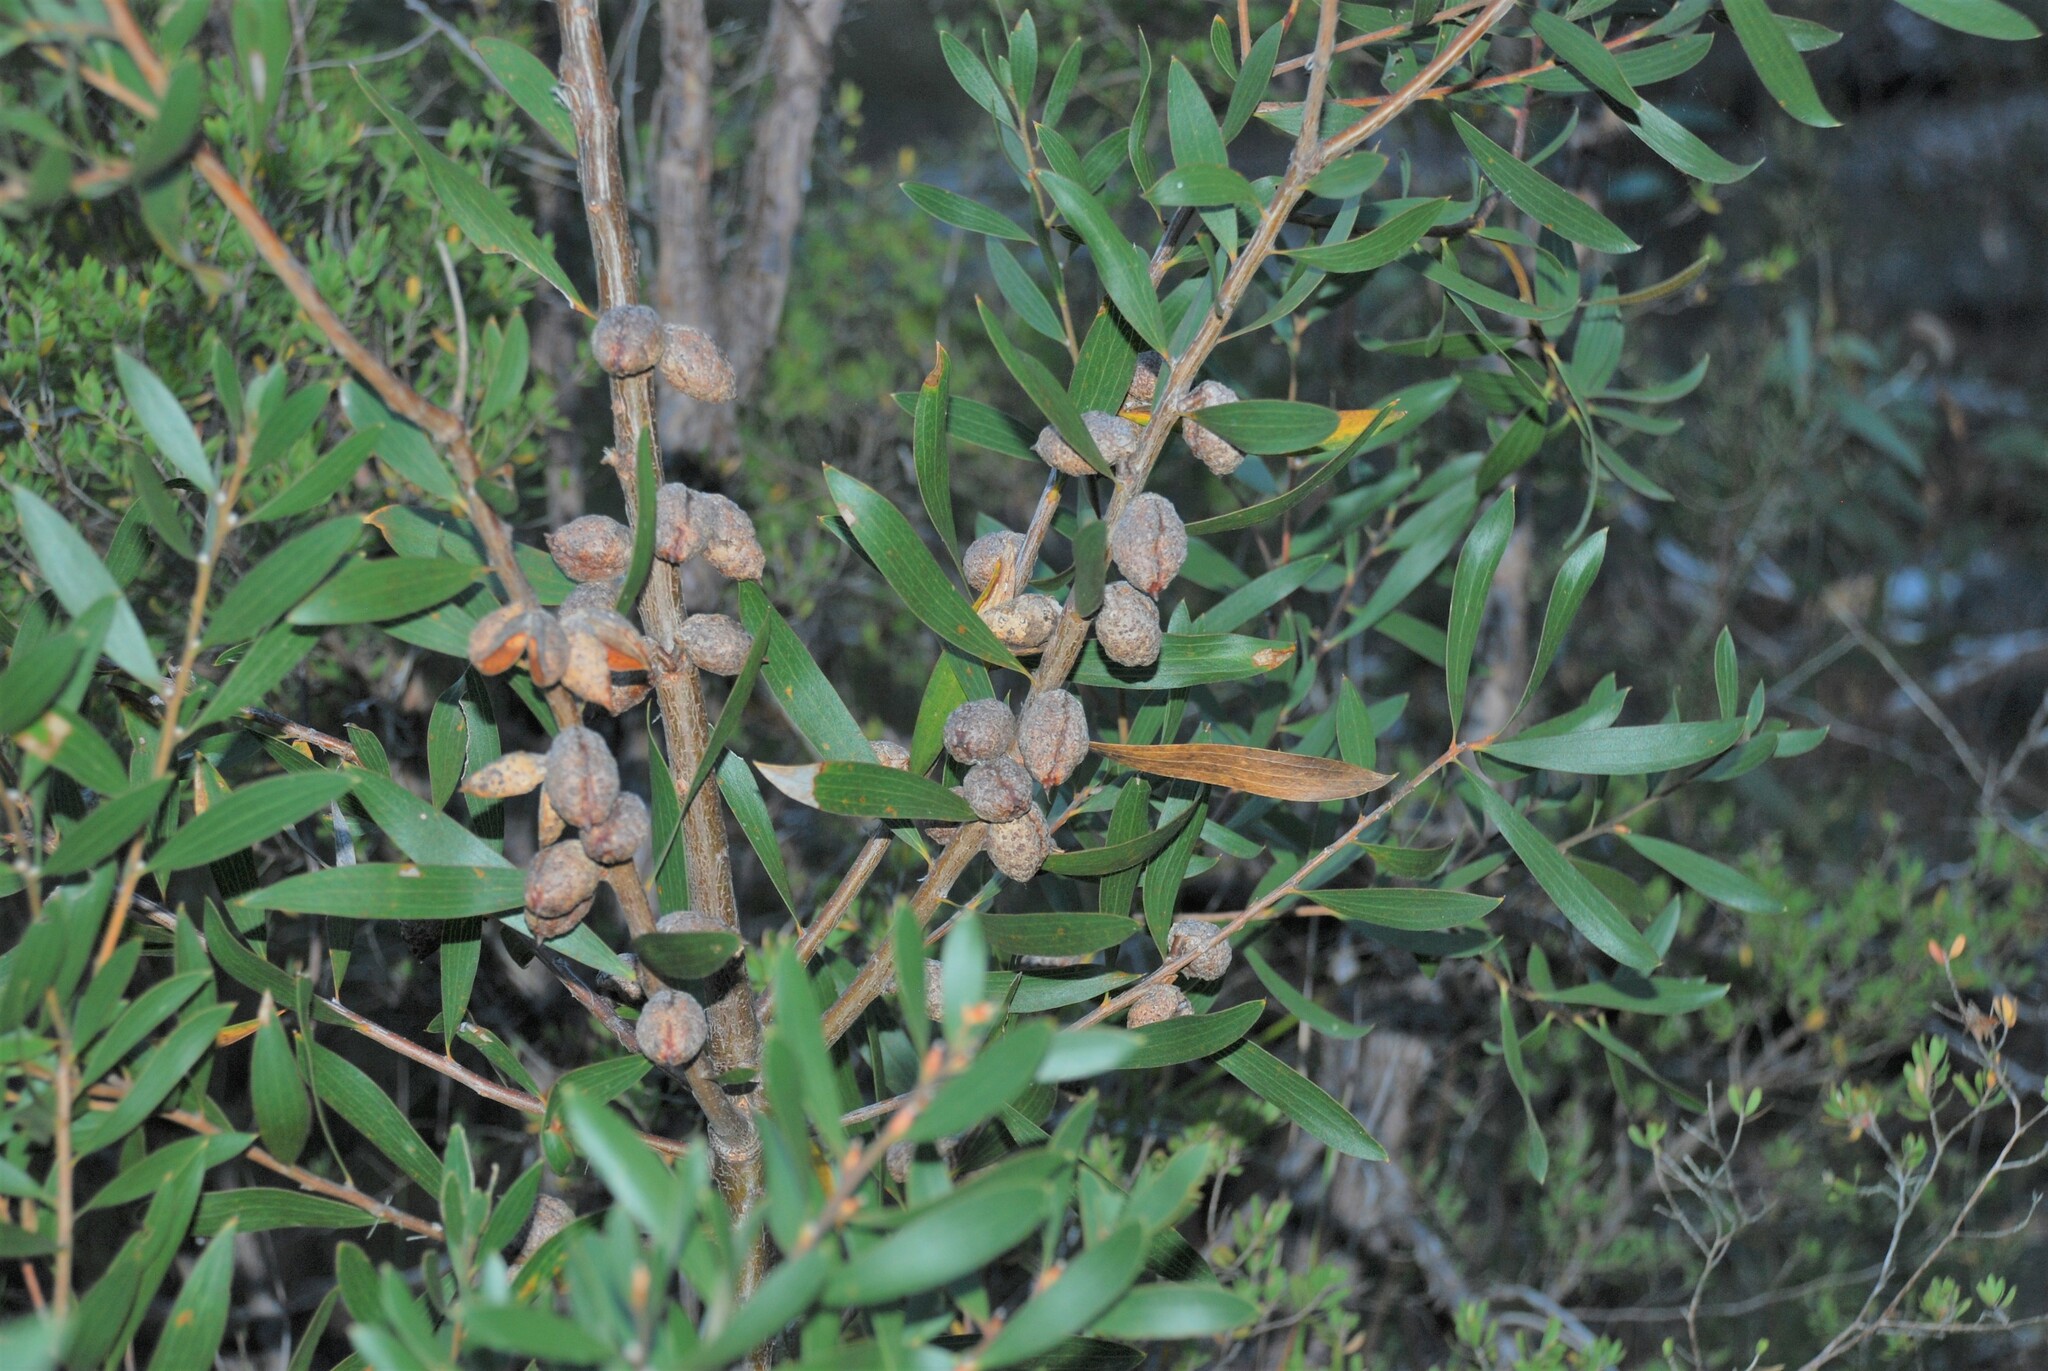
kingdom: Plantae
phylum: Tracheophyta
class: Magnoliopsida
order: Proteales
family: Proteaceae
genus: Hakea
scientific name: Hakea laevipes
